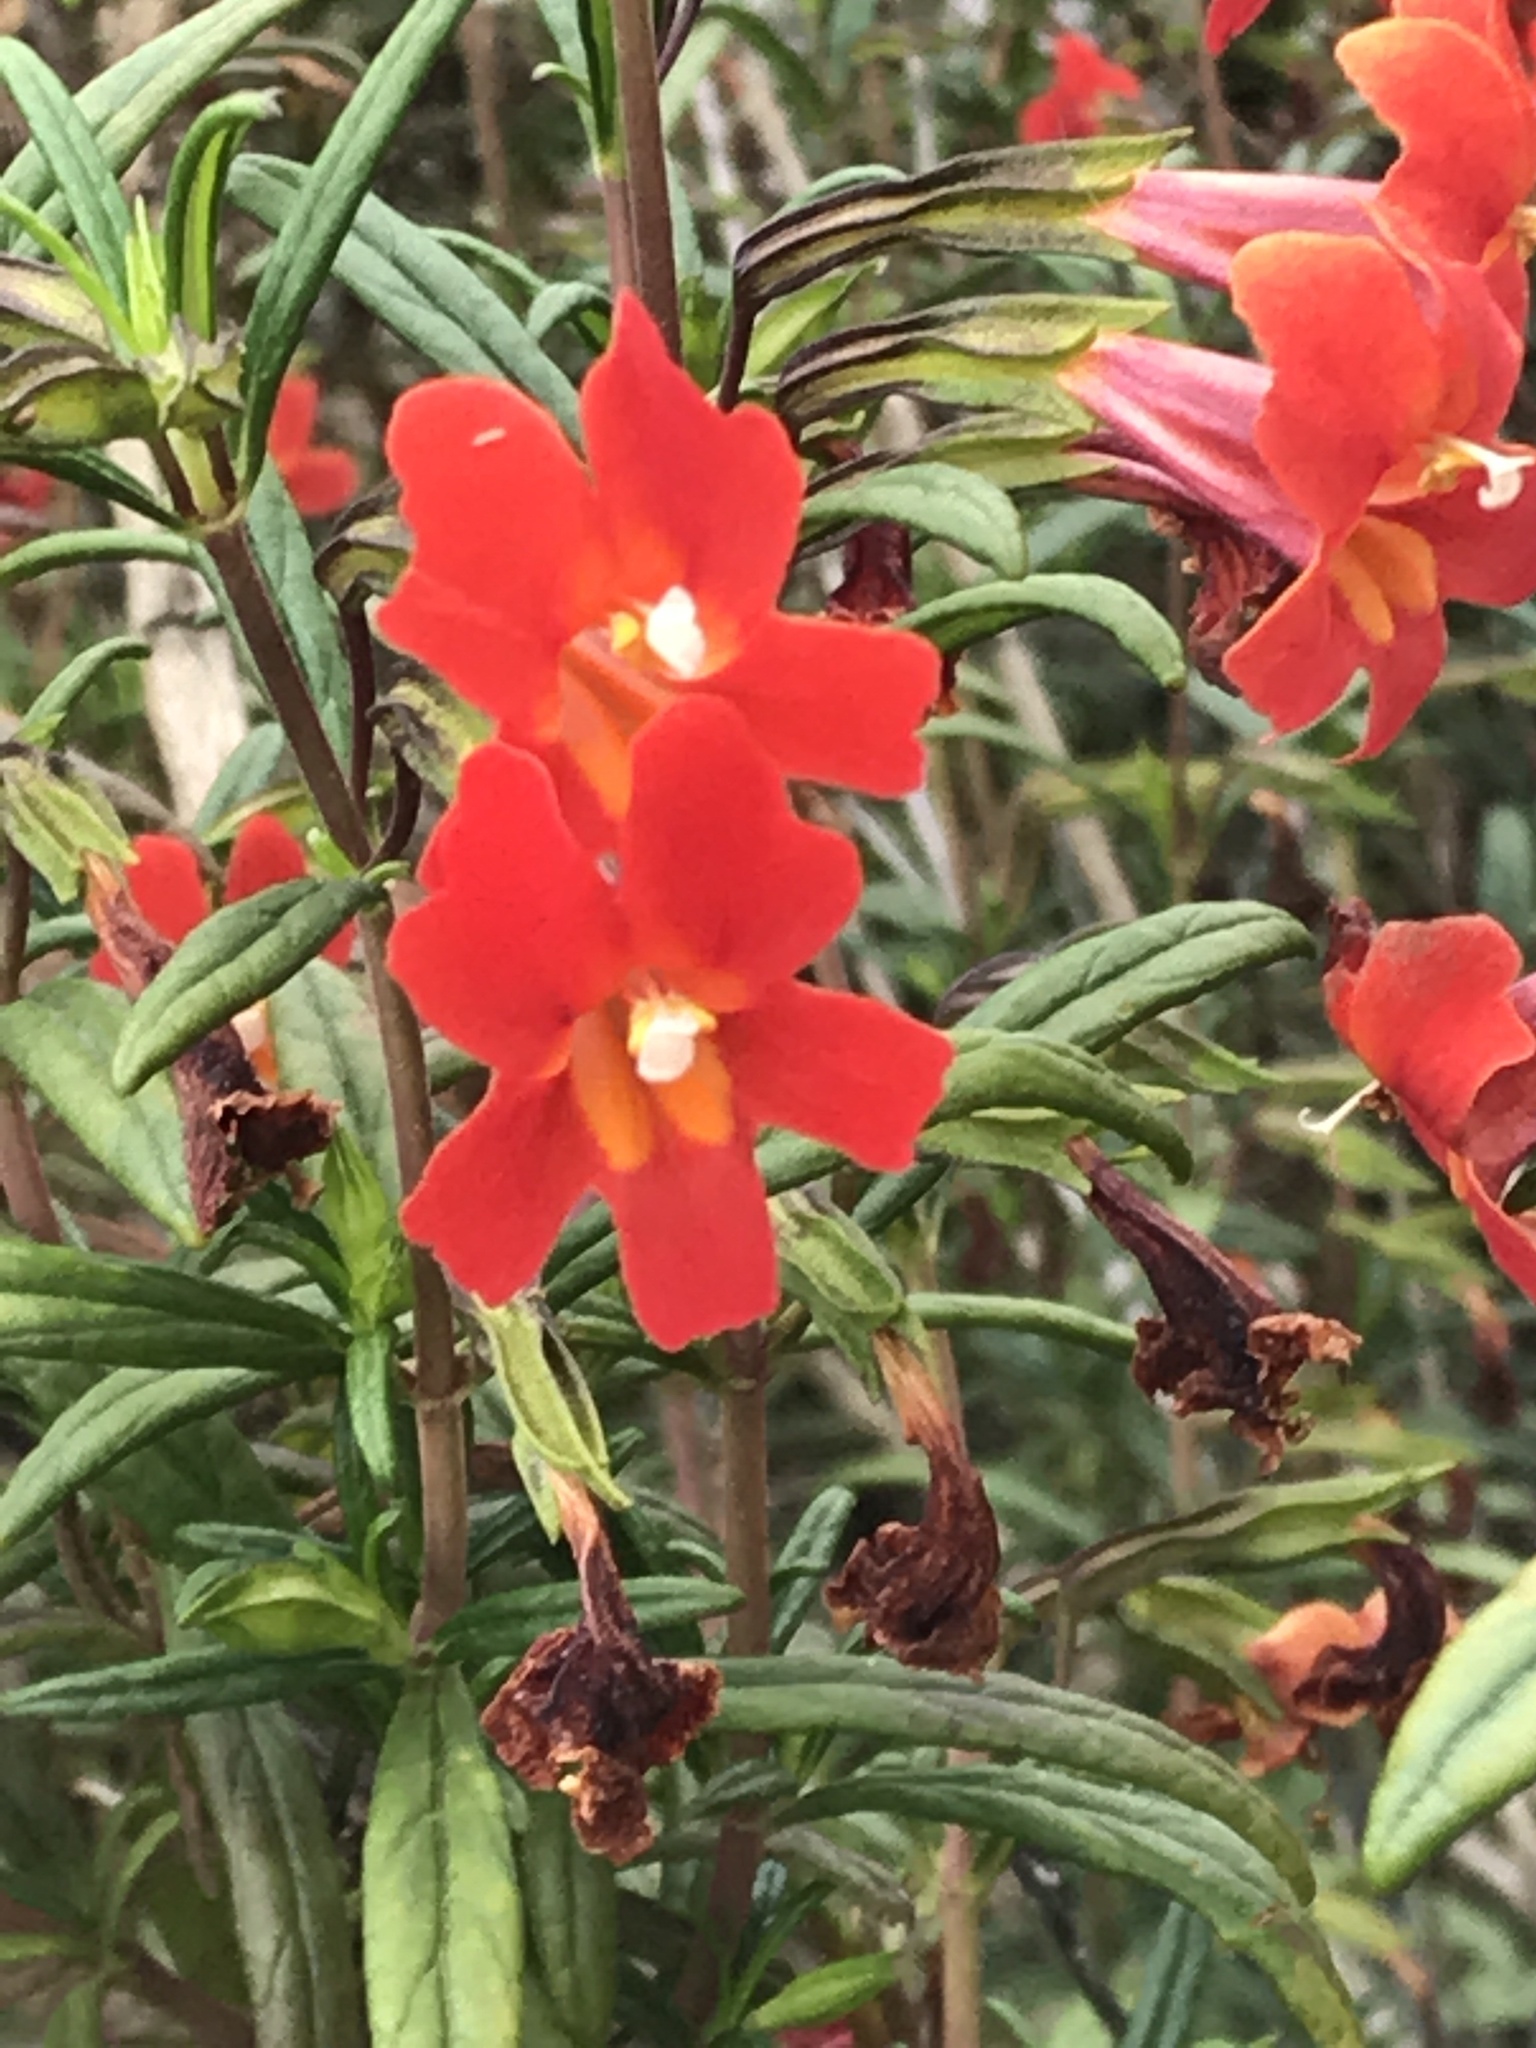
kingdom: Plantae
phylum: Tracheophyta
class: Magnoliopsida
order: Lamiales
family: Phrymaceae
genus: Diplacus
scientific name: Diplacus puniceus
